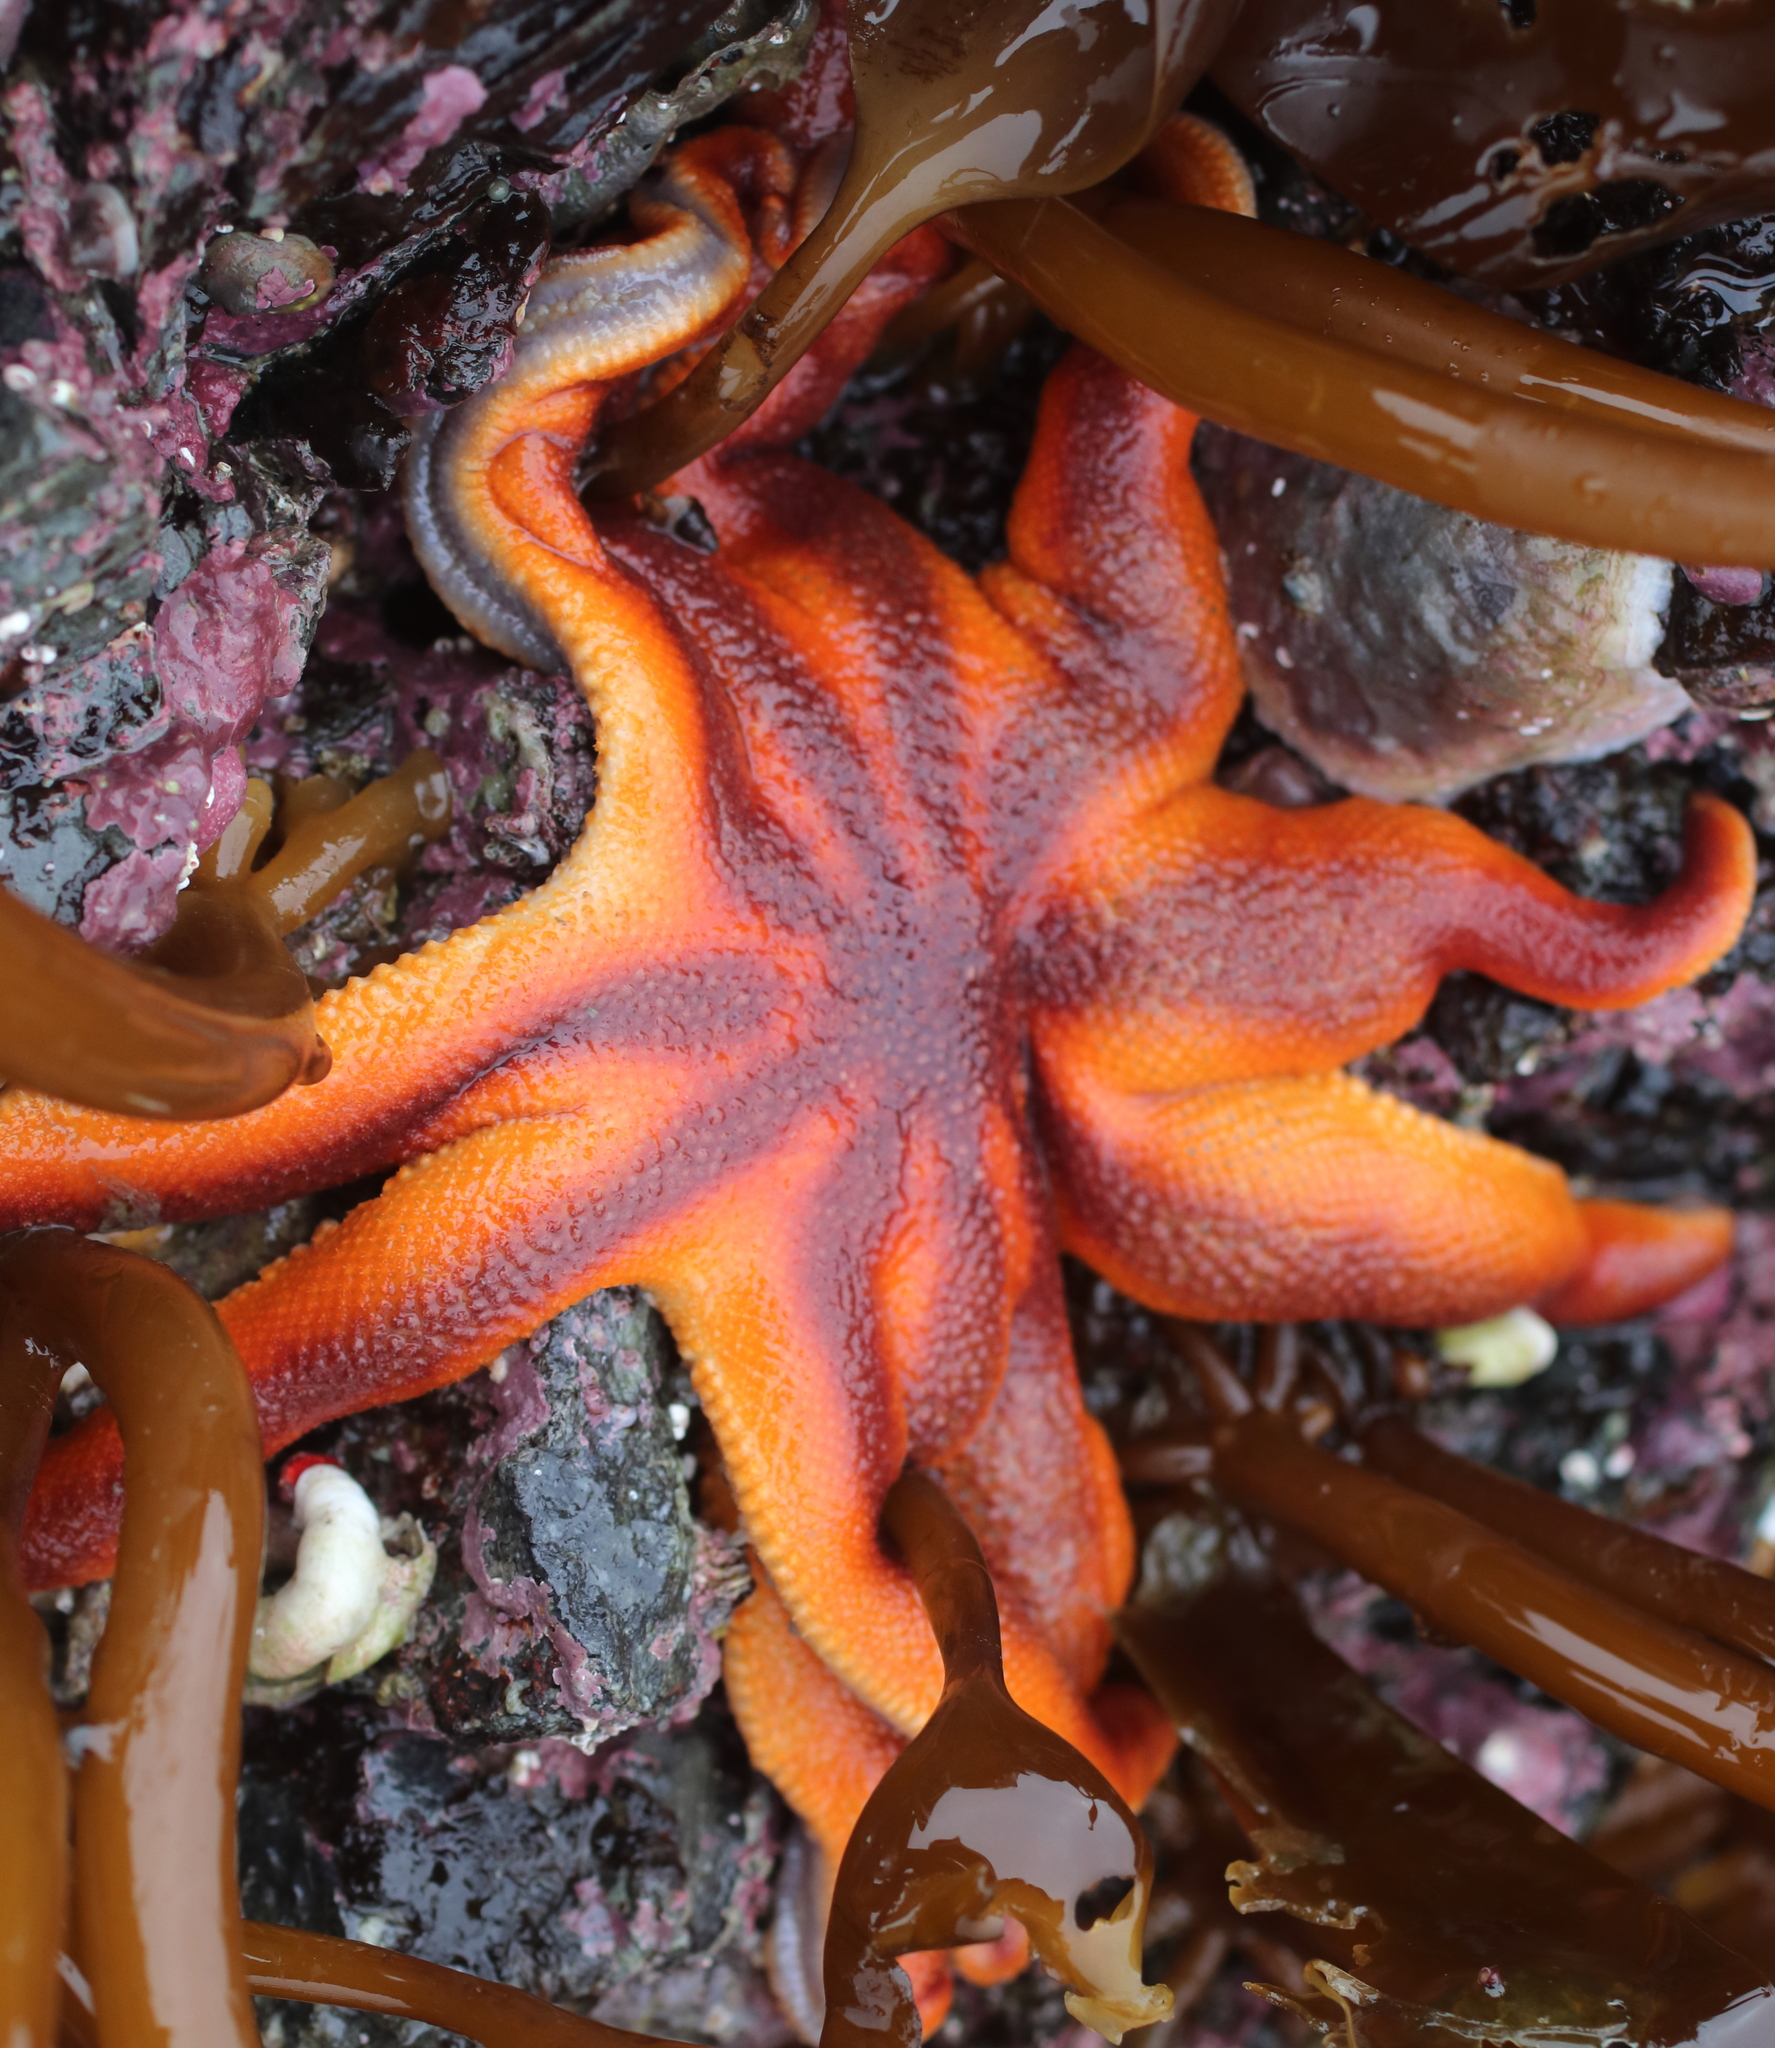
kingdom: Animalia
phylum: Echinodermata
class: Asteroidea
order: Valvatida
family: Solasteridae
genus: Solaster
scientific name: Solaster pacificus
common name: Northern sunstar
